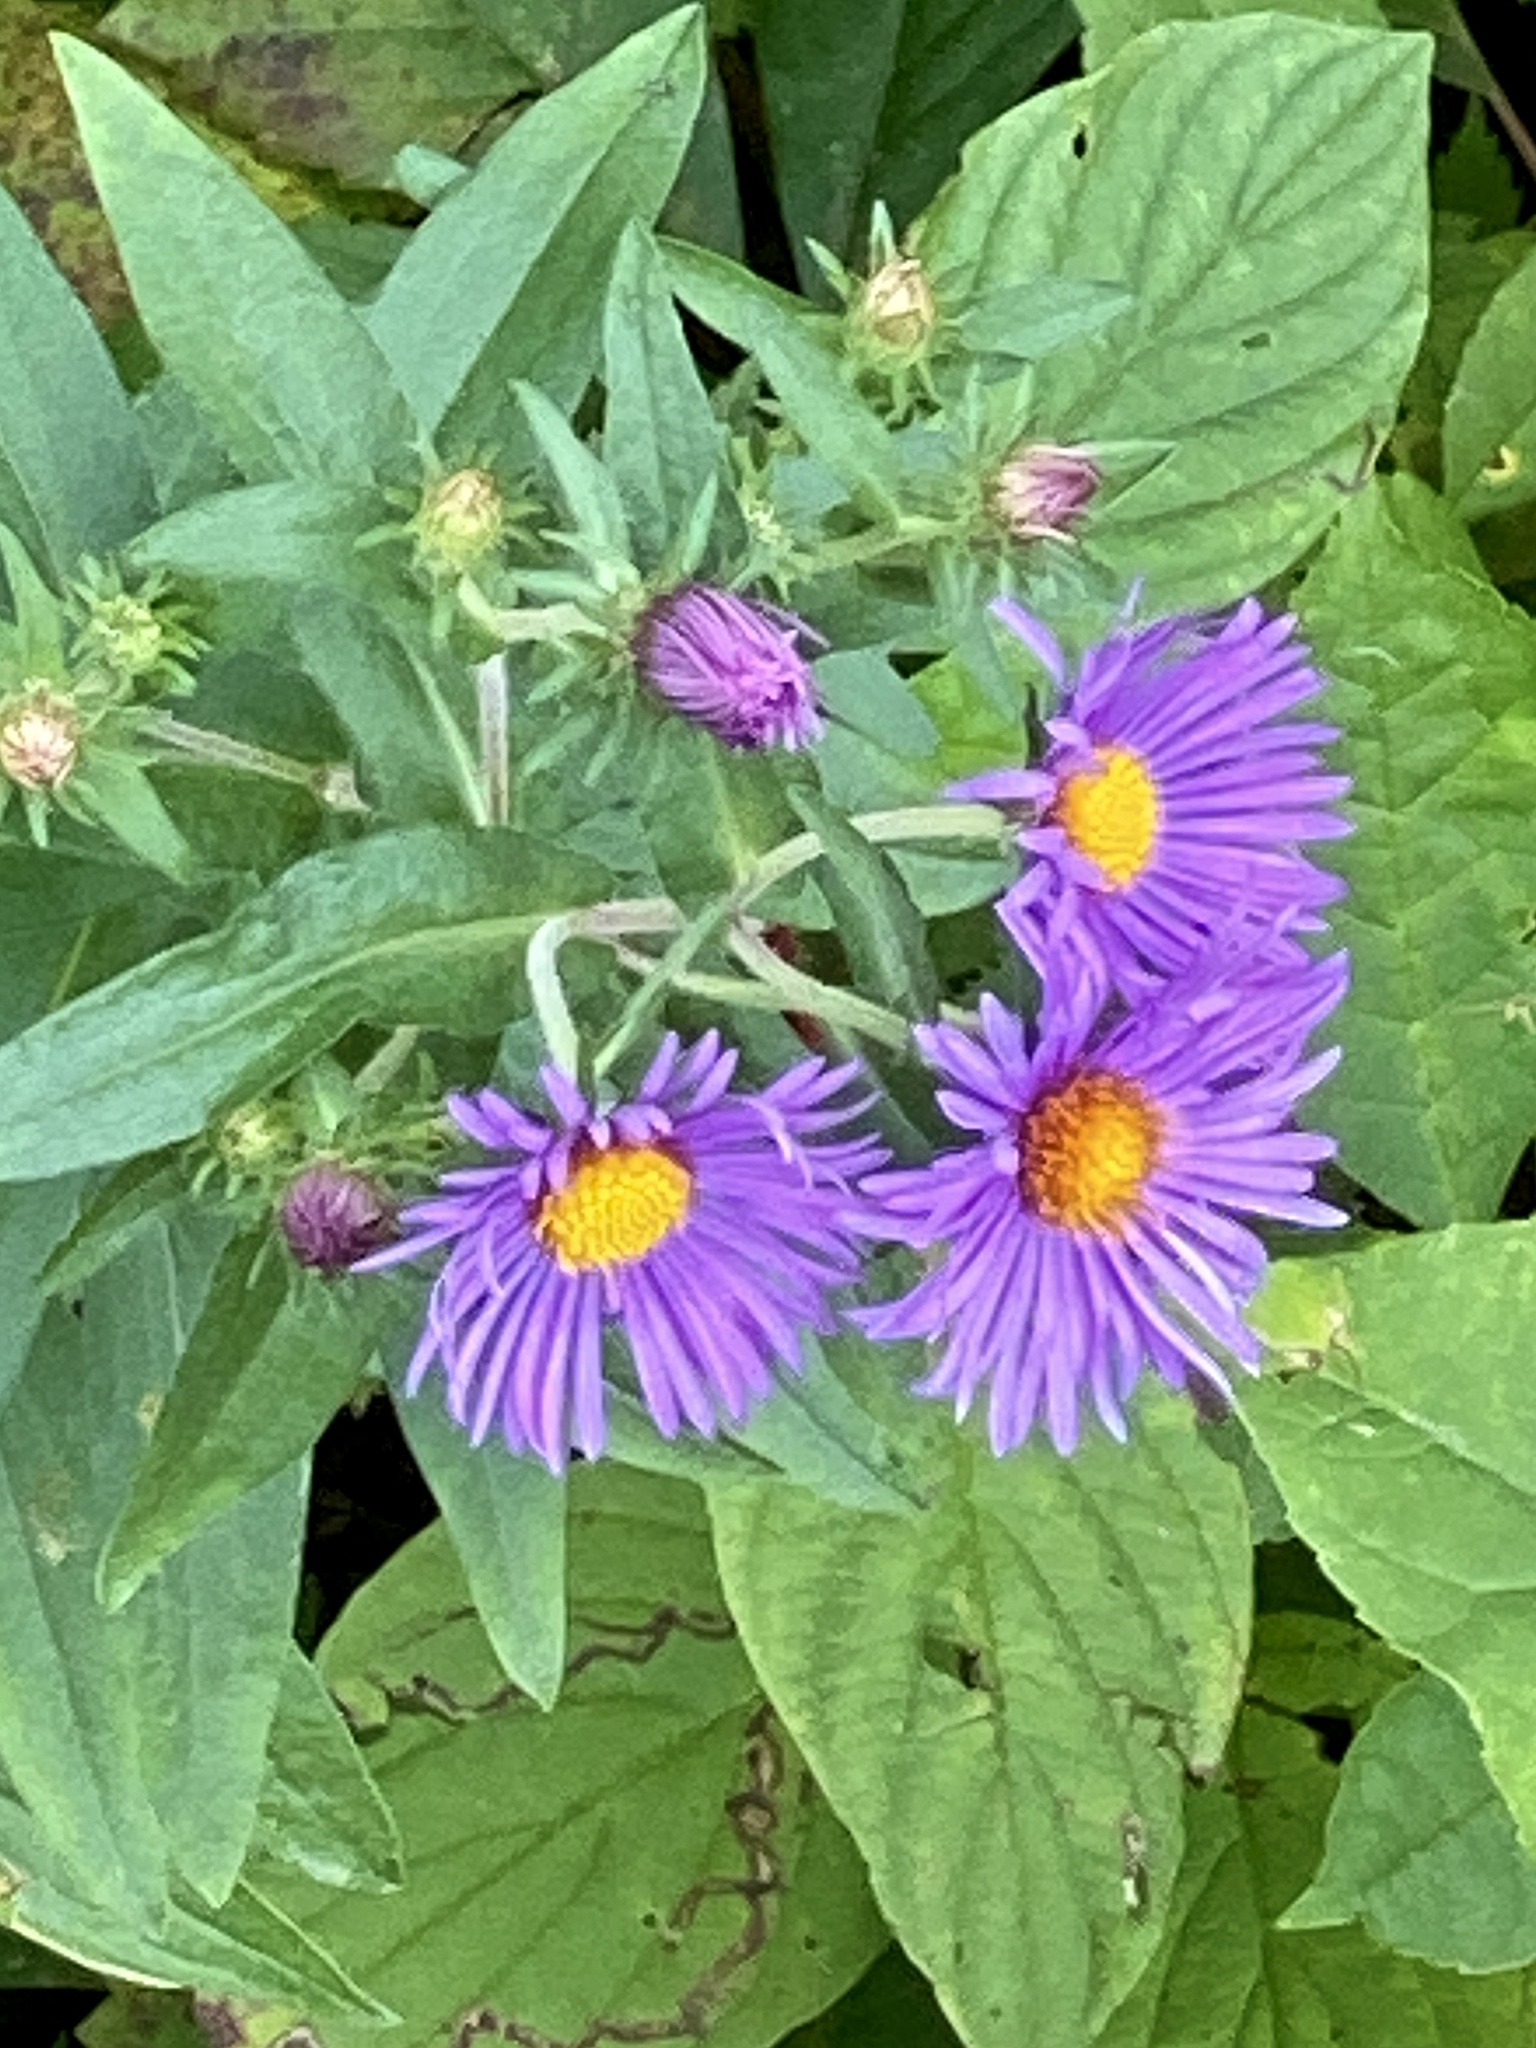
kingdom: Plantae
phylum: Tracheophyta
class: Magnoliopsida
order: Asterales
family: Asteraceae
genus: Symphyotrichum
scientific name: Symphyotrichum novae-angliae
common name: Michaelmas daisy
